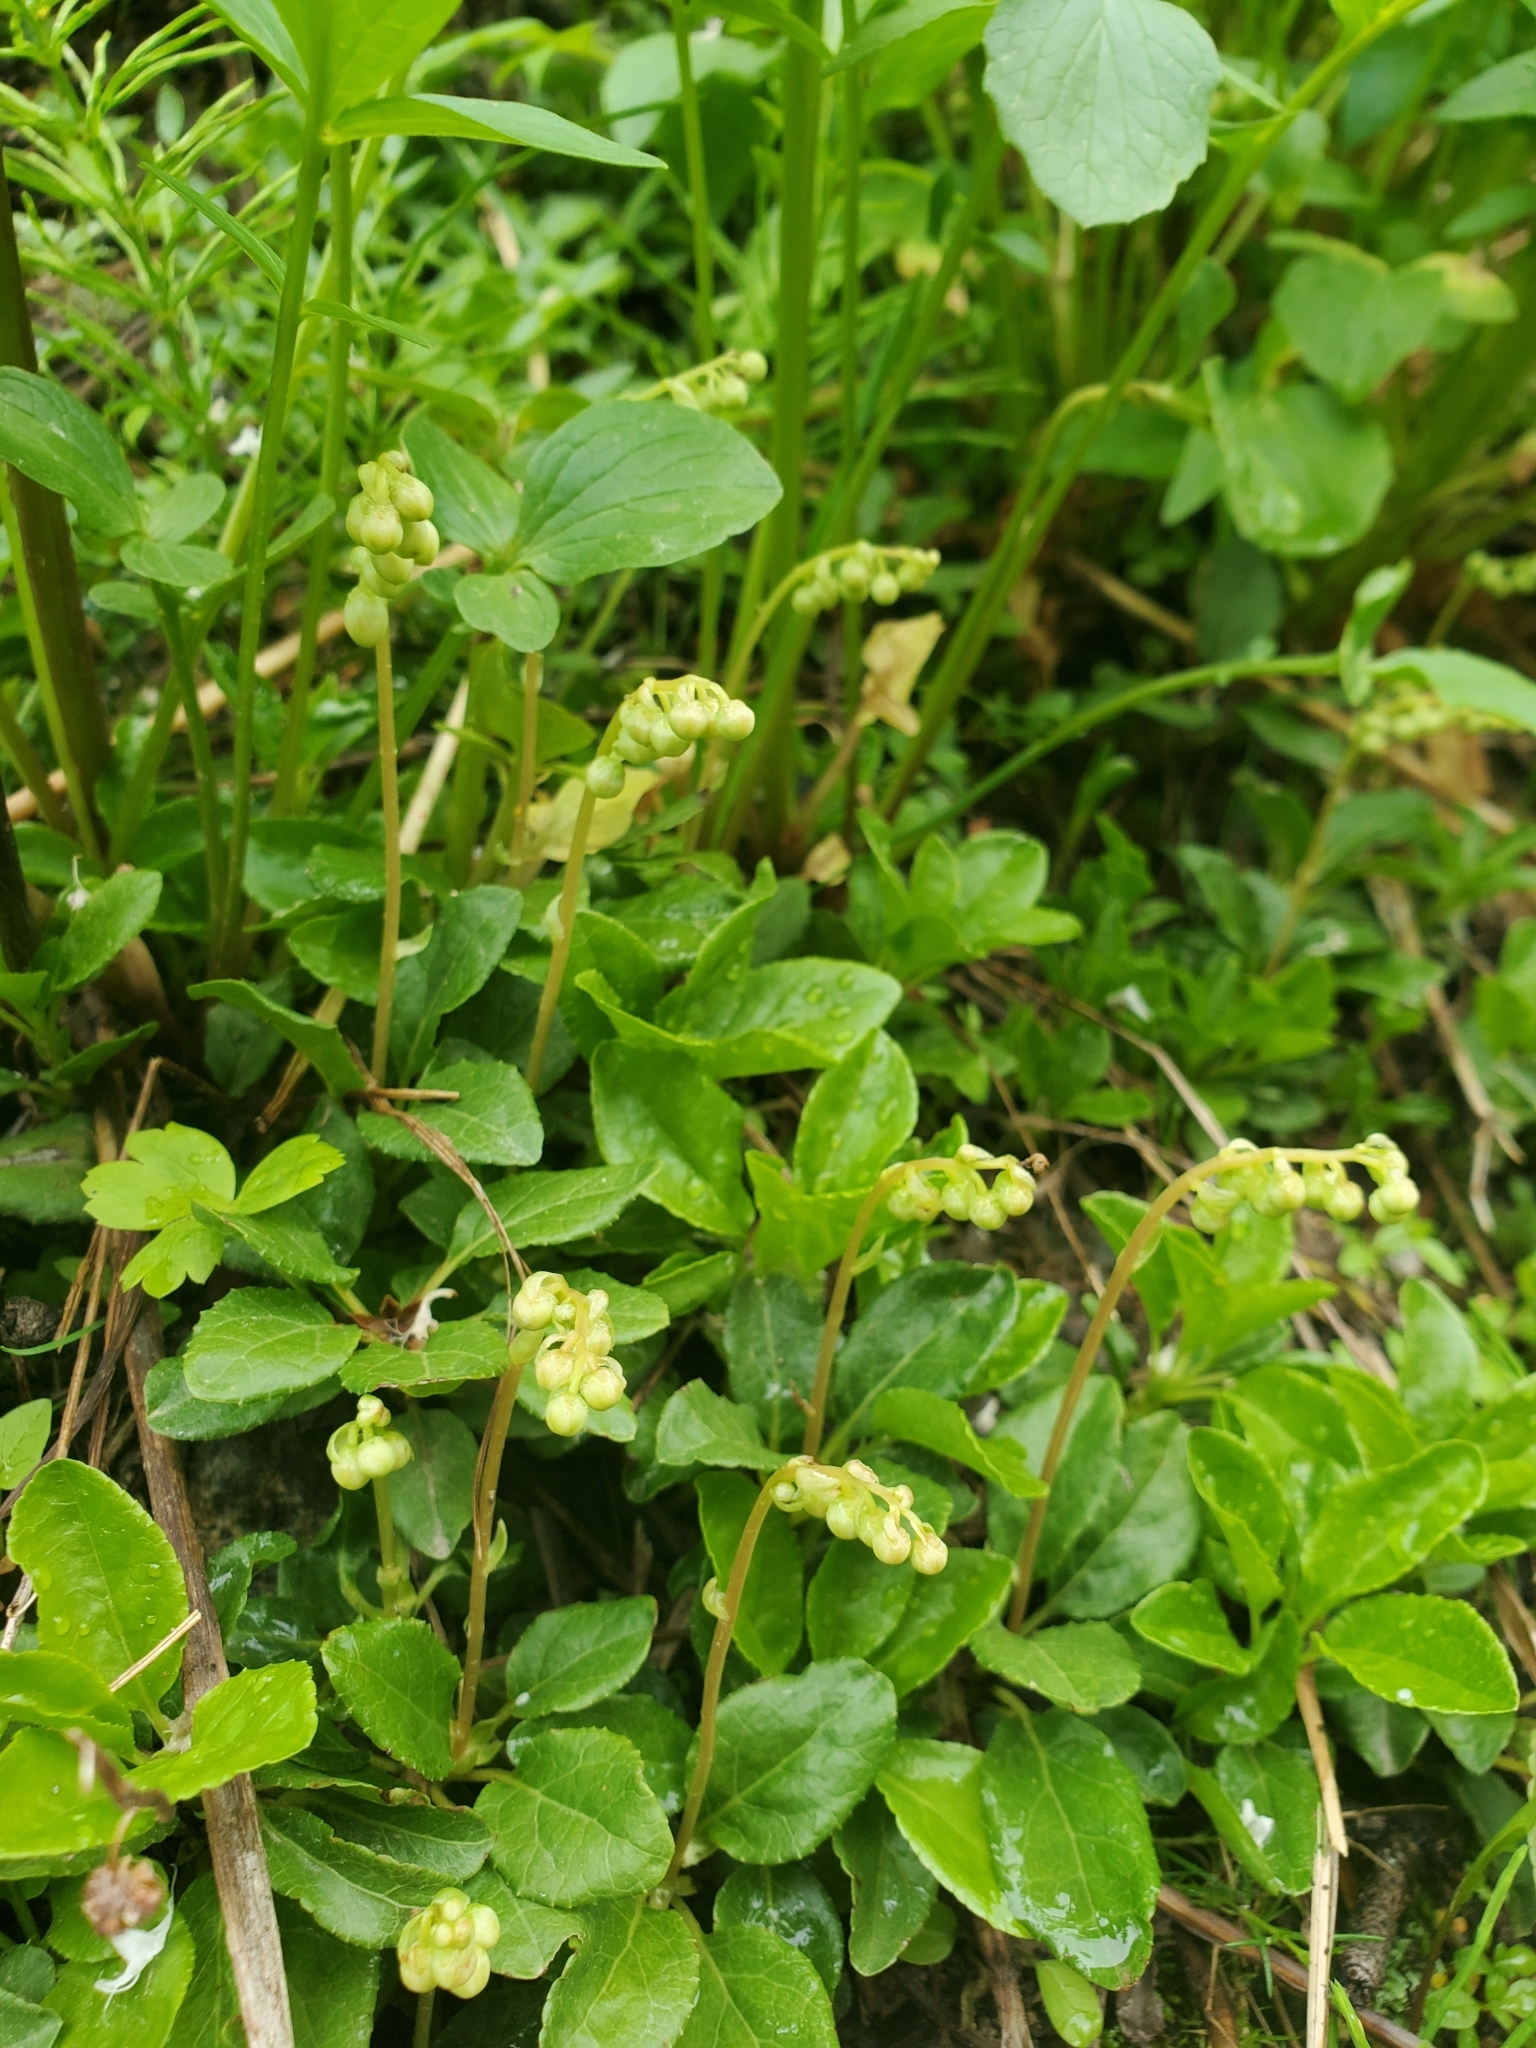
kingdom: Plantae
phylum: Tracheophyta
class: Magnoliopsida
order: Ericales
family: Ericaceae
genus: Orthilia
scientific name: Orthilia secunda
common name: One-sided orthilia
